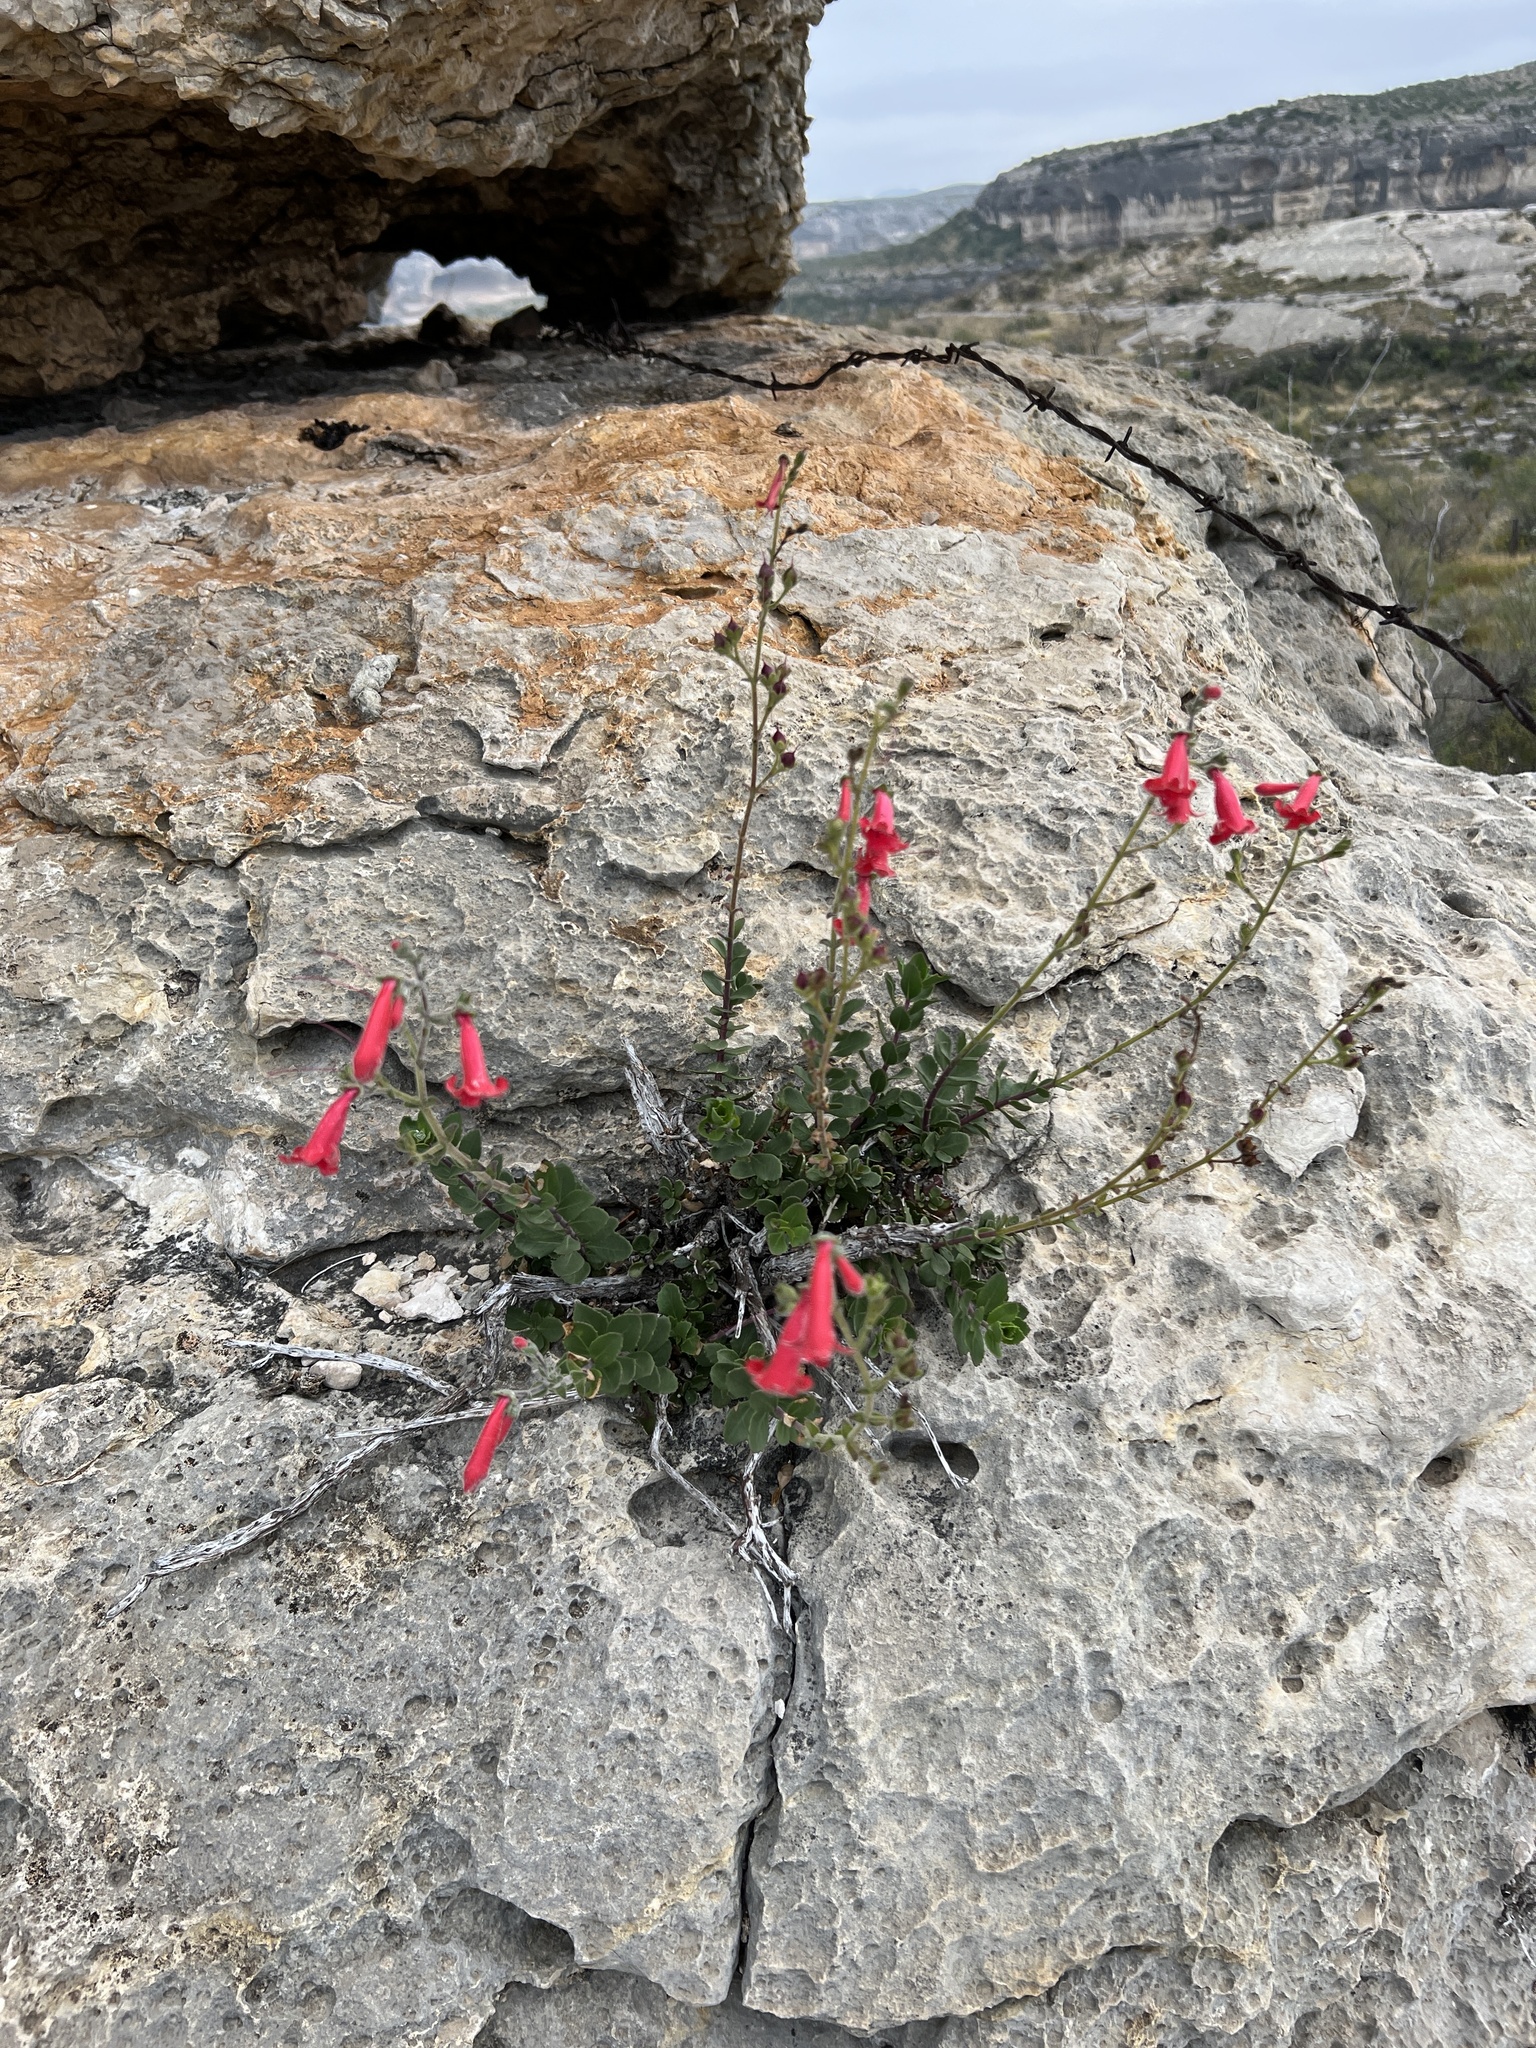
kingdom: Plantae
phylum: Tracheophyta
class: Magnoliopsida
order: Lamiales
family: Plantaginaceae
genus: Penstemon
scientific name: Penstemon baccharifolius
